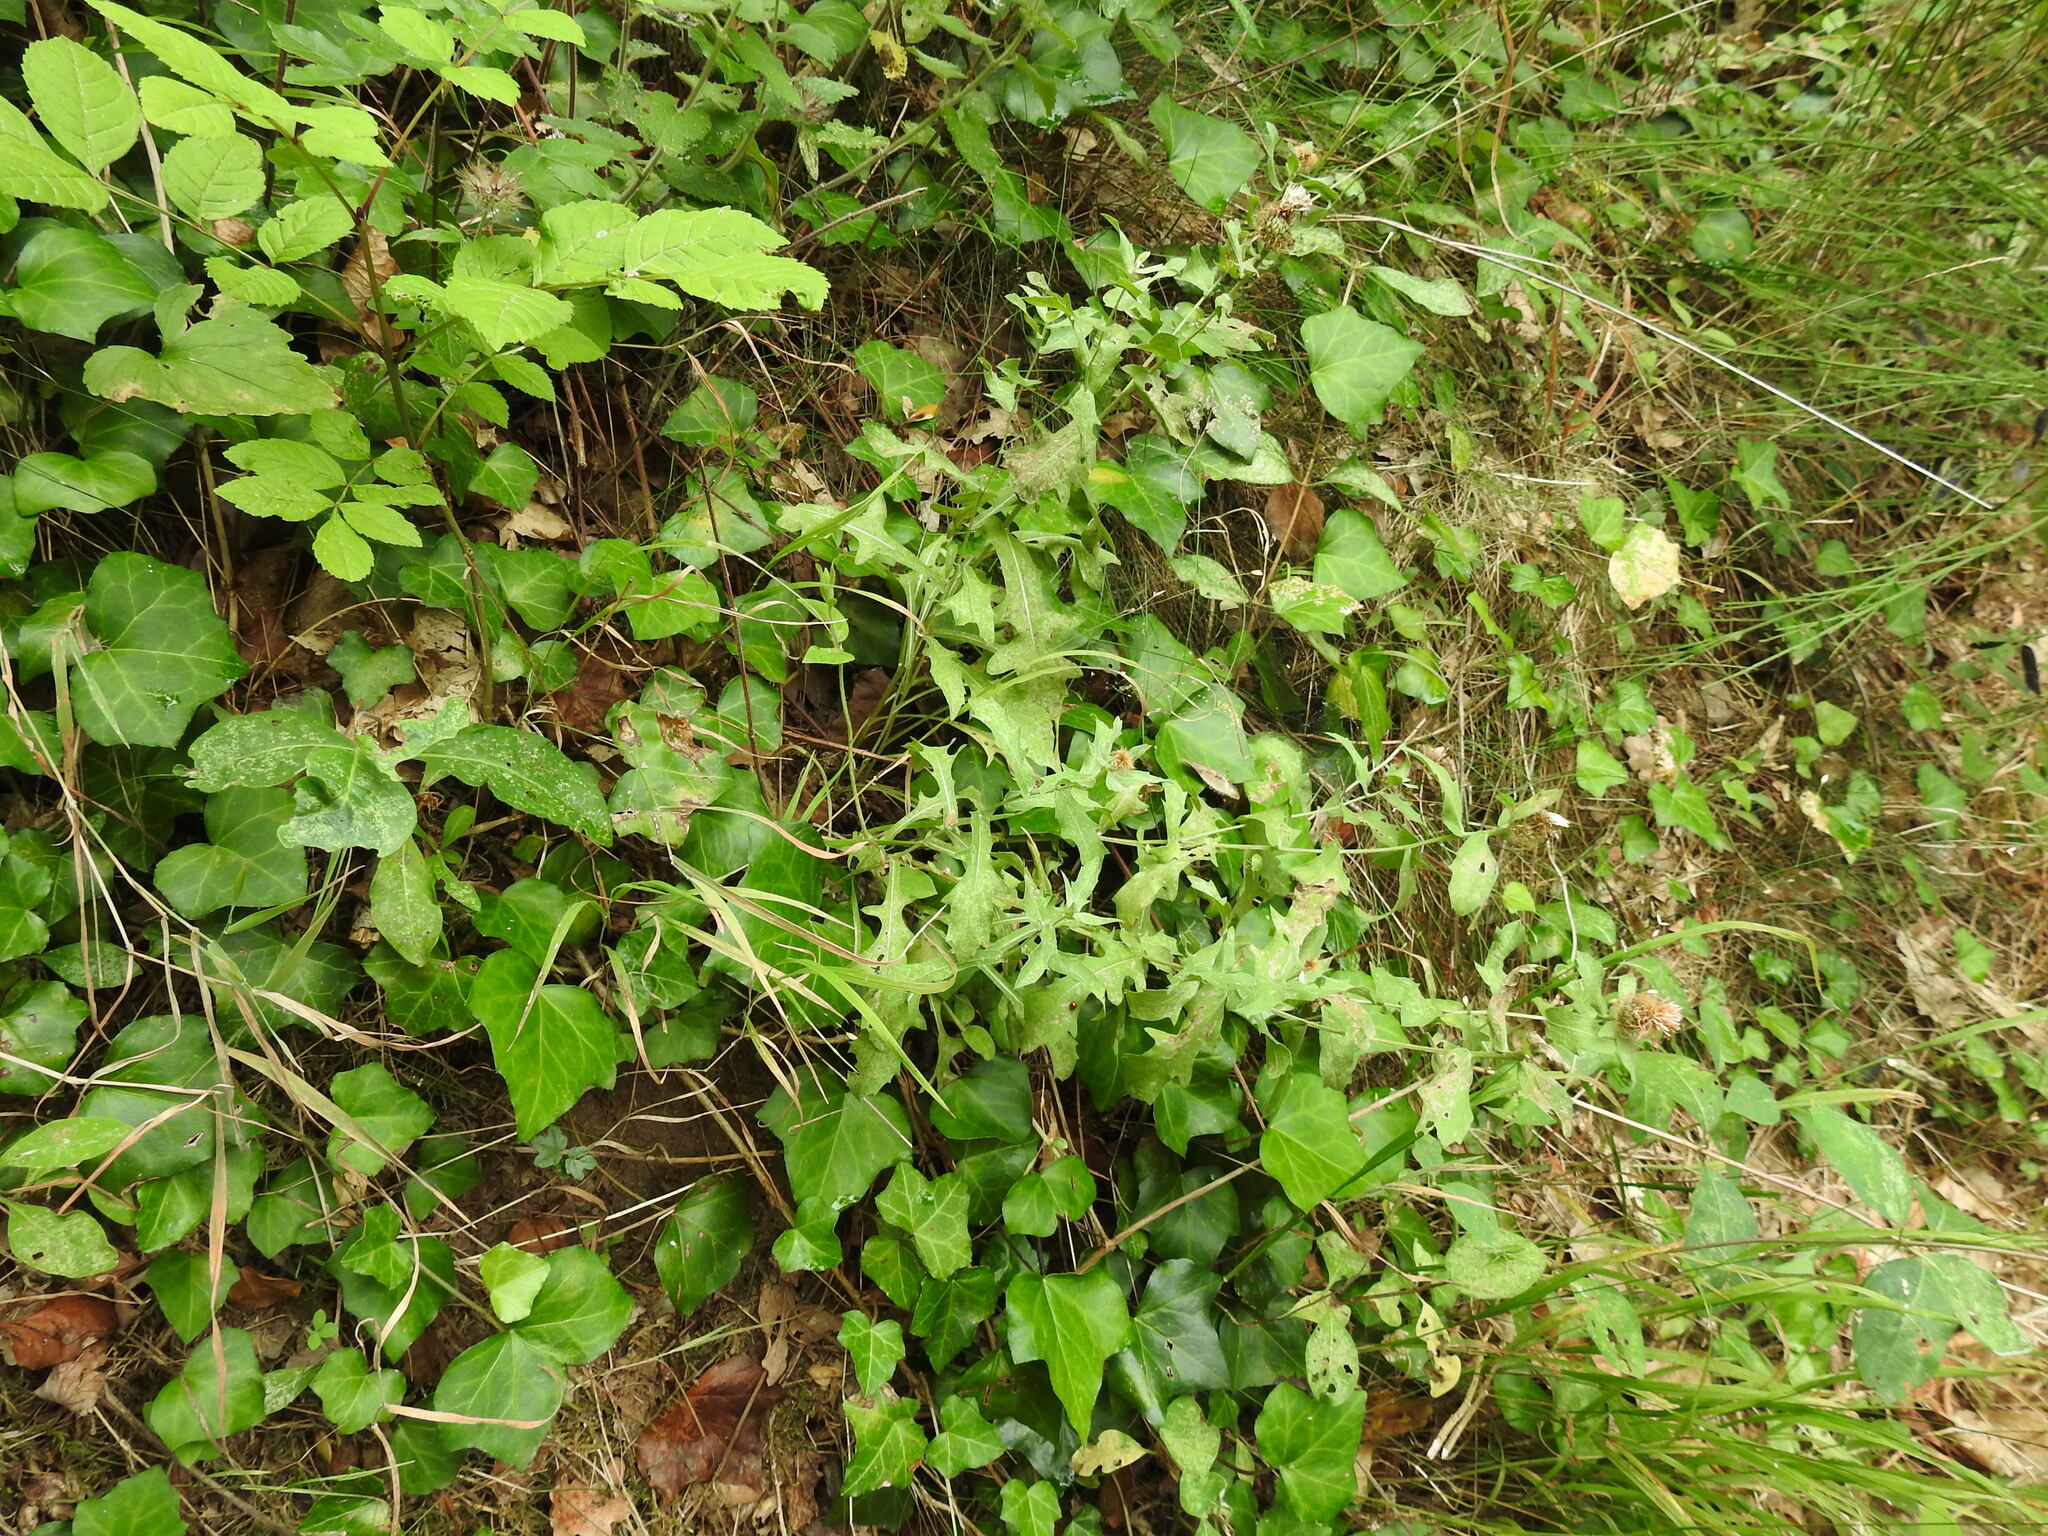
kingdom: Plantae
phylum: Tracheophyta
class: Magnoliopsida
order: Asterales
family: Asteraceae
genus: Centaurea
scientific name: Centaurea pectinata
